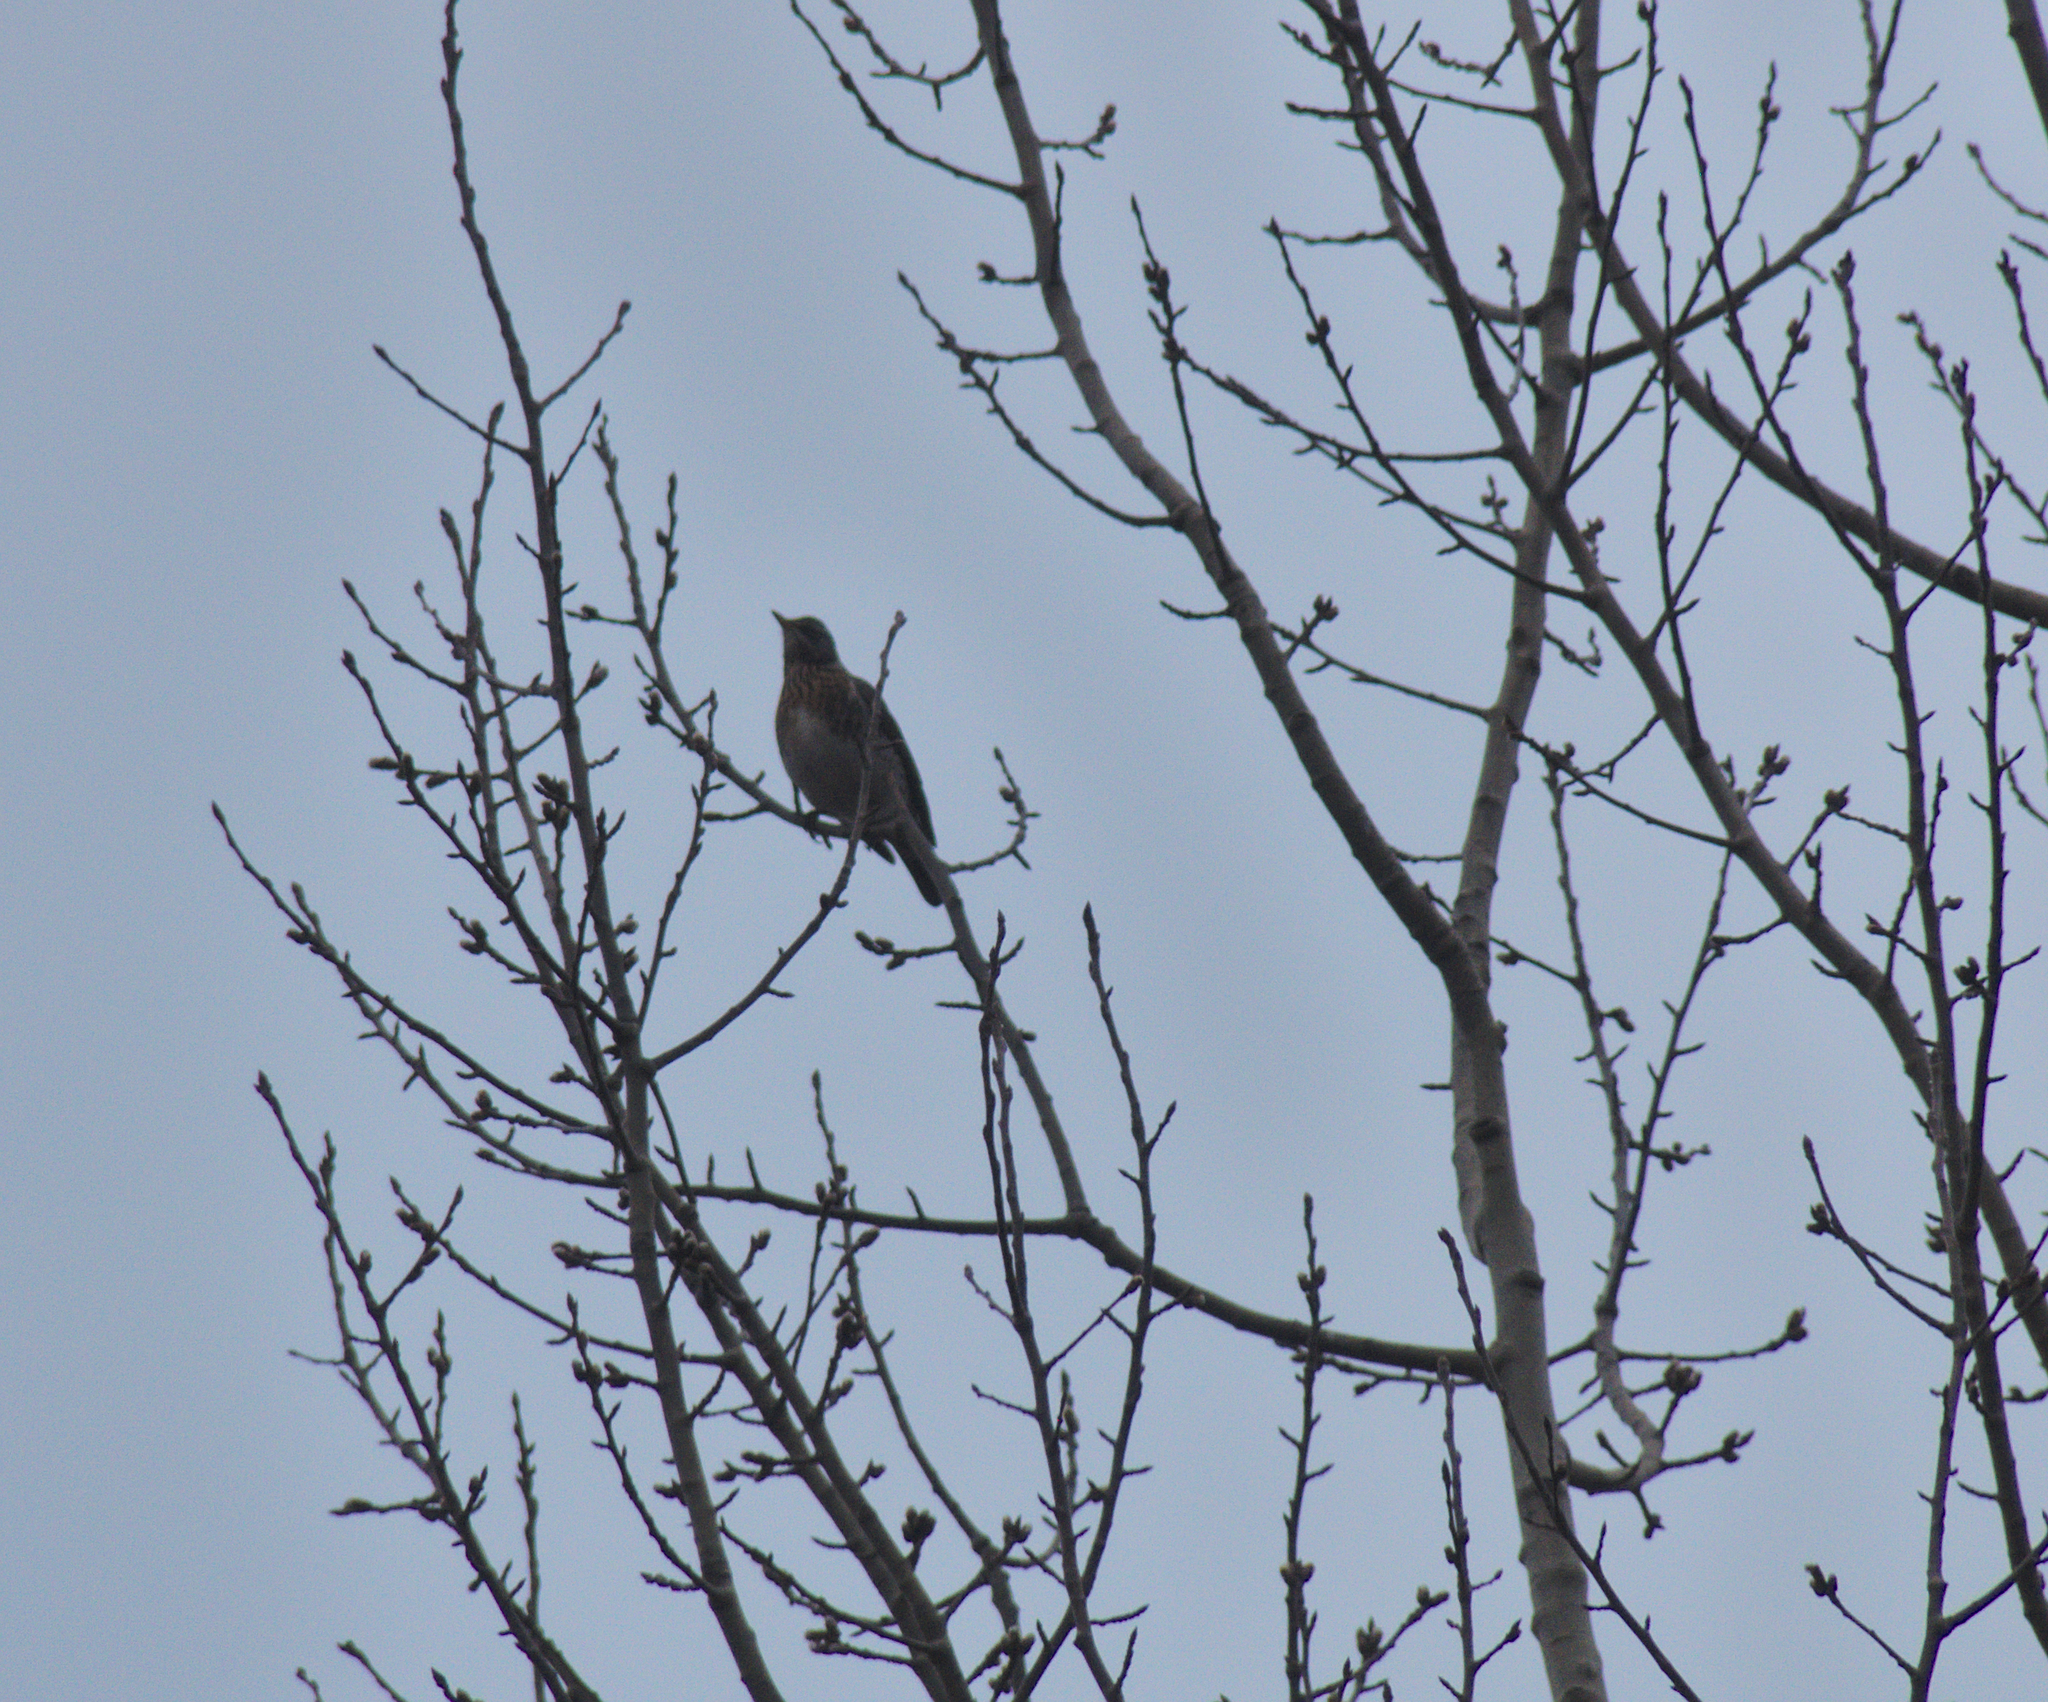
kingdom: Animalia
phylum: Chordata
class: Aves
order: Passeriformes
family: Turdidae
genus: Turdus
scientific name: Turdus pilaris
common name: Fieldfare
